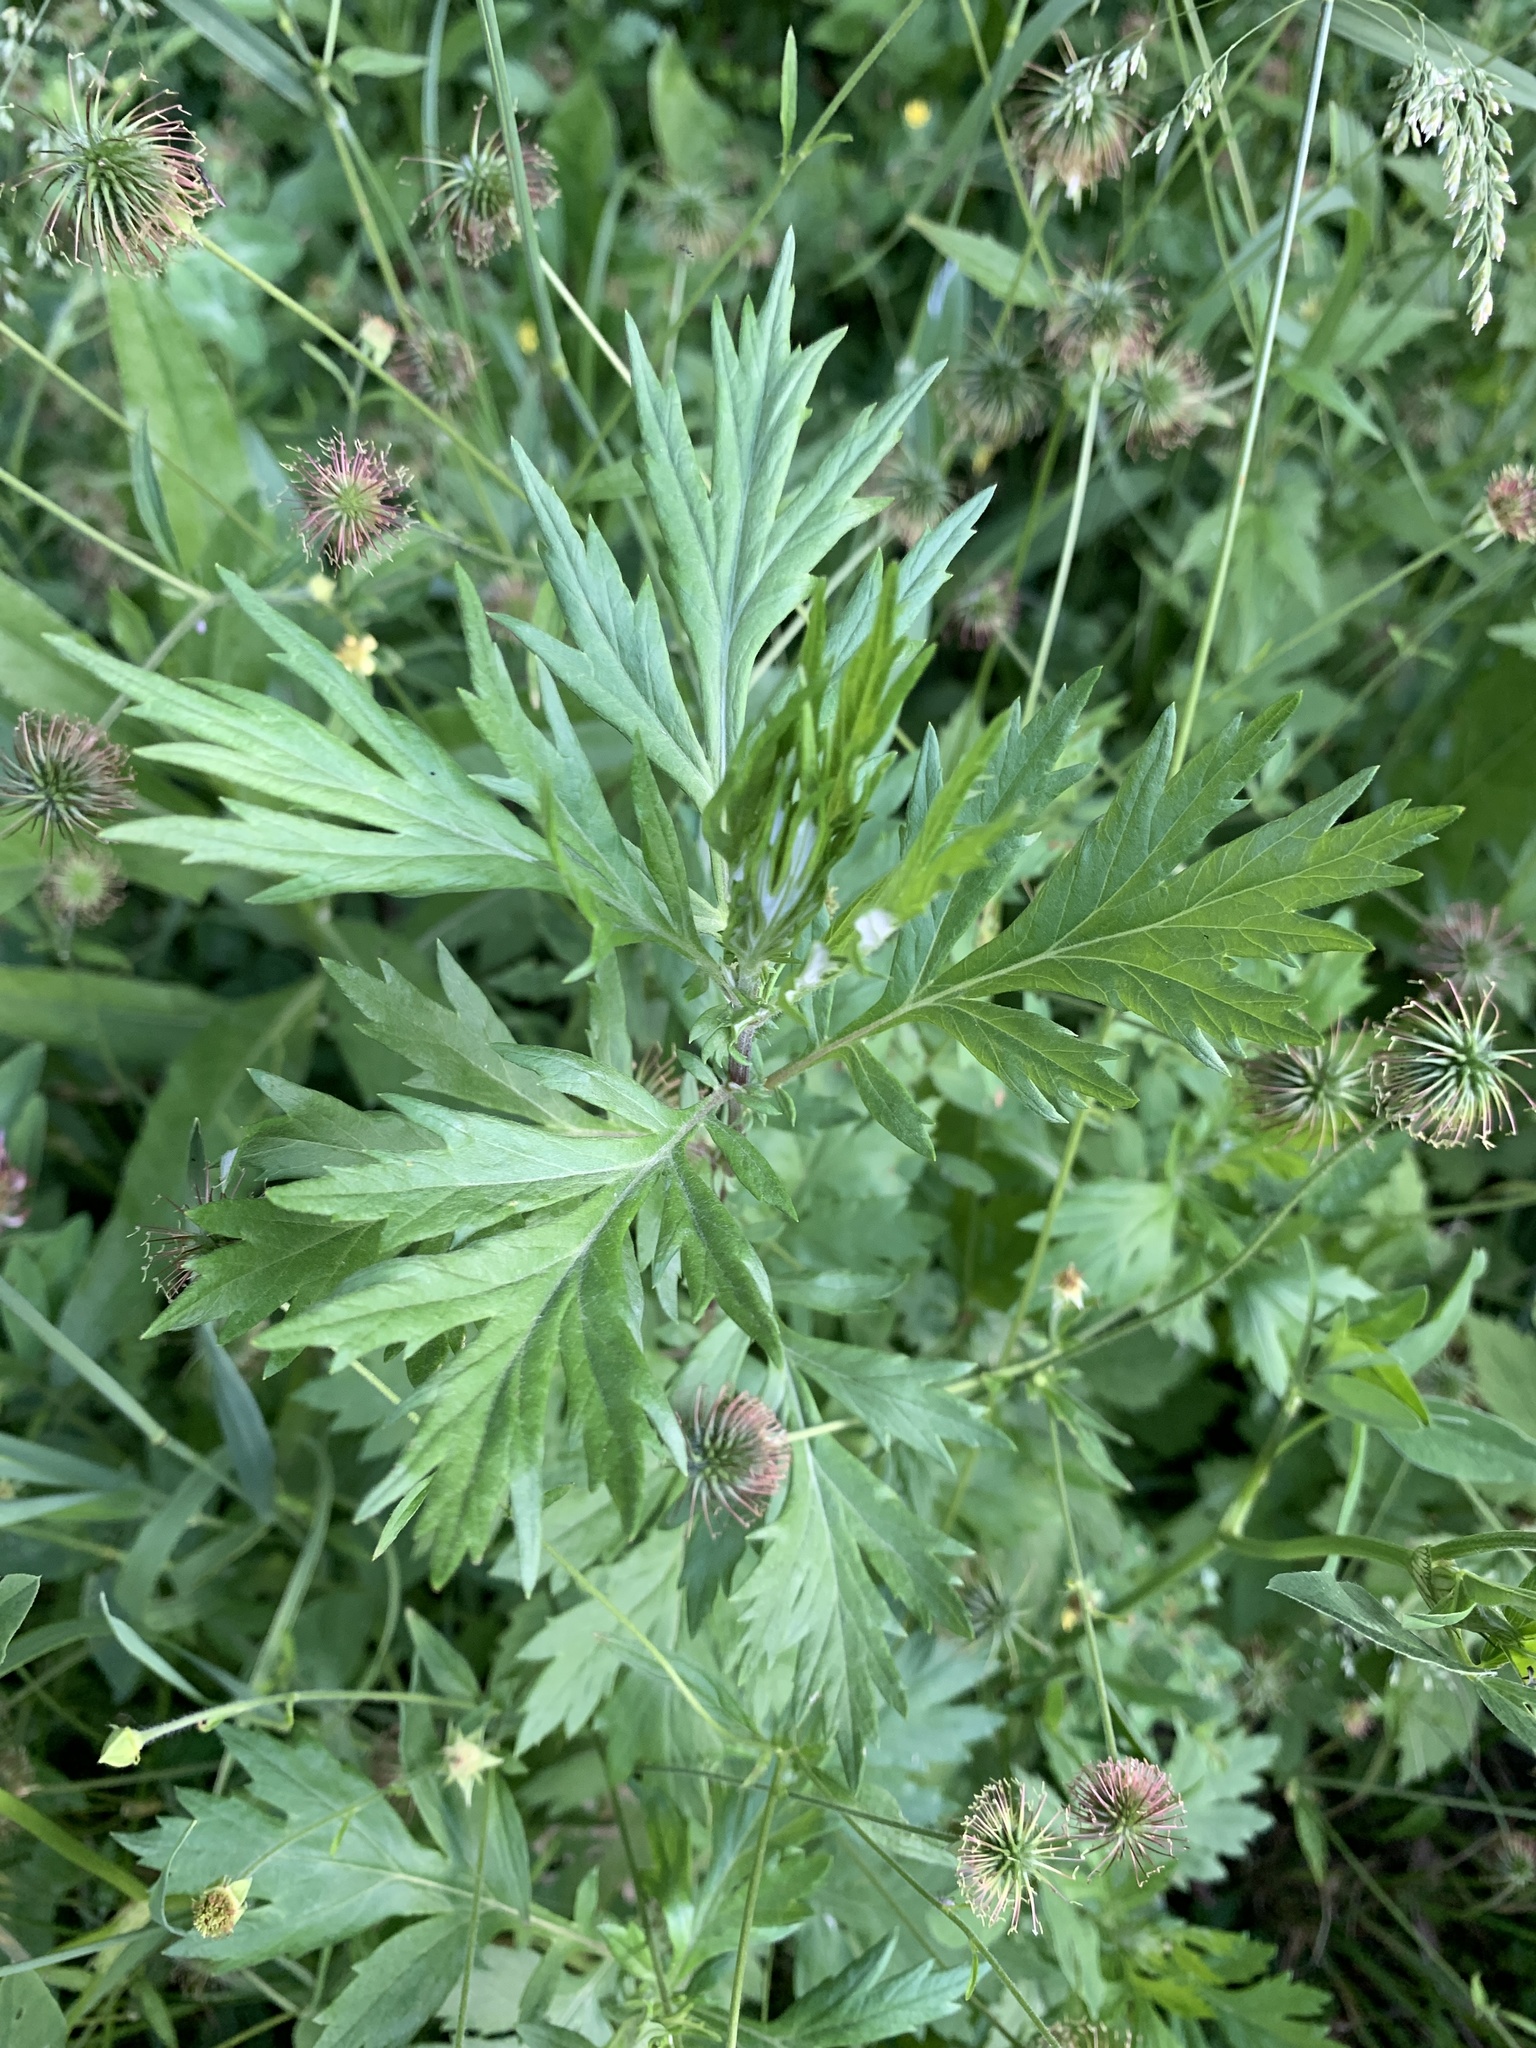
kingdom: Plantae
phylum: Tracheophyta
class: Magnoliopsida
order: Asterales
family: Asteraceae
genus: Artemisia
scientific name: Artemisia vulgaris
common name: Mugwort
